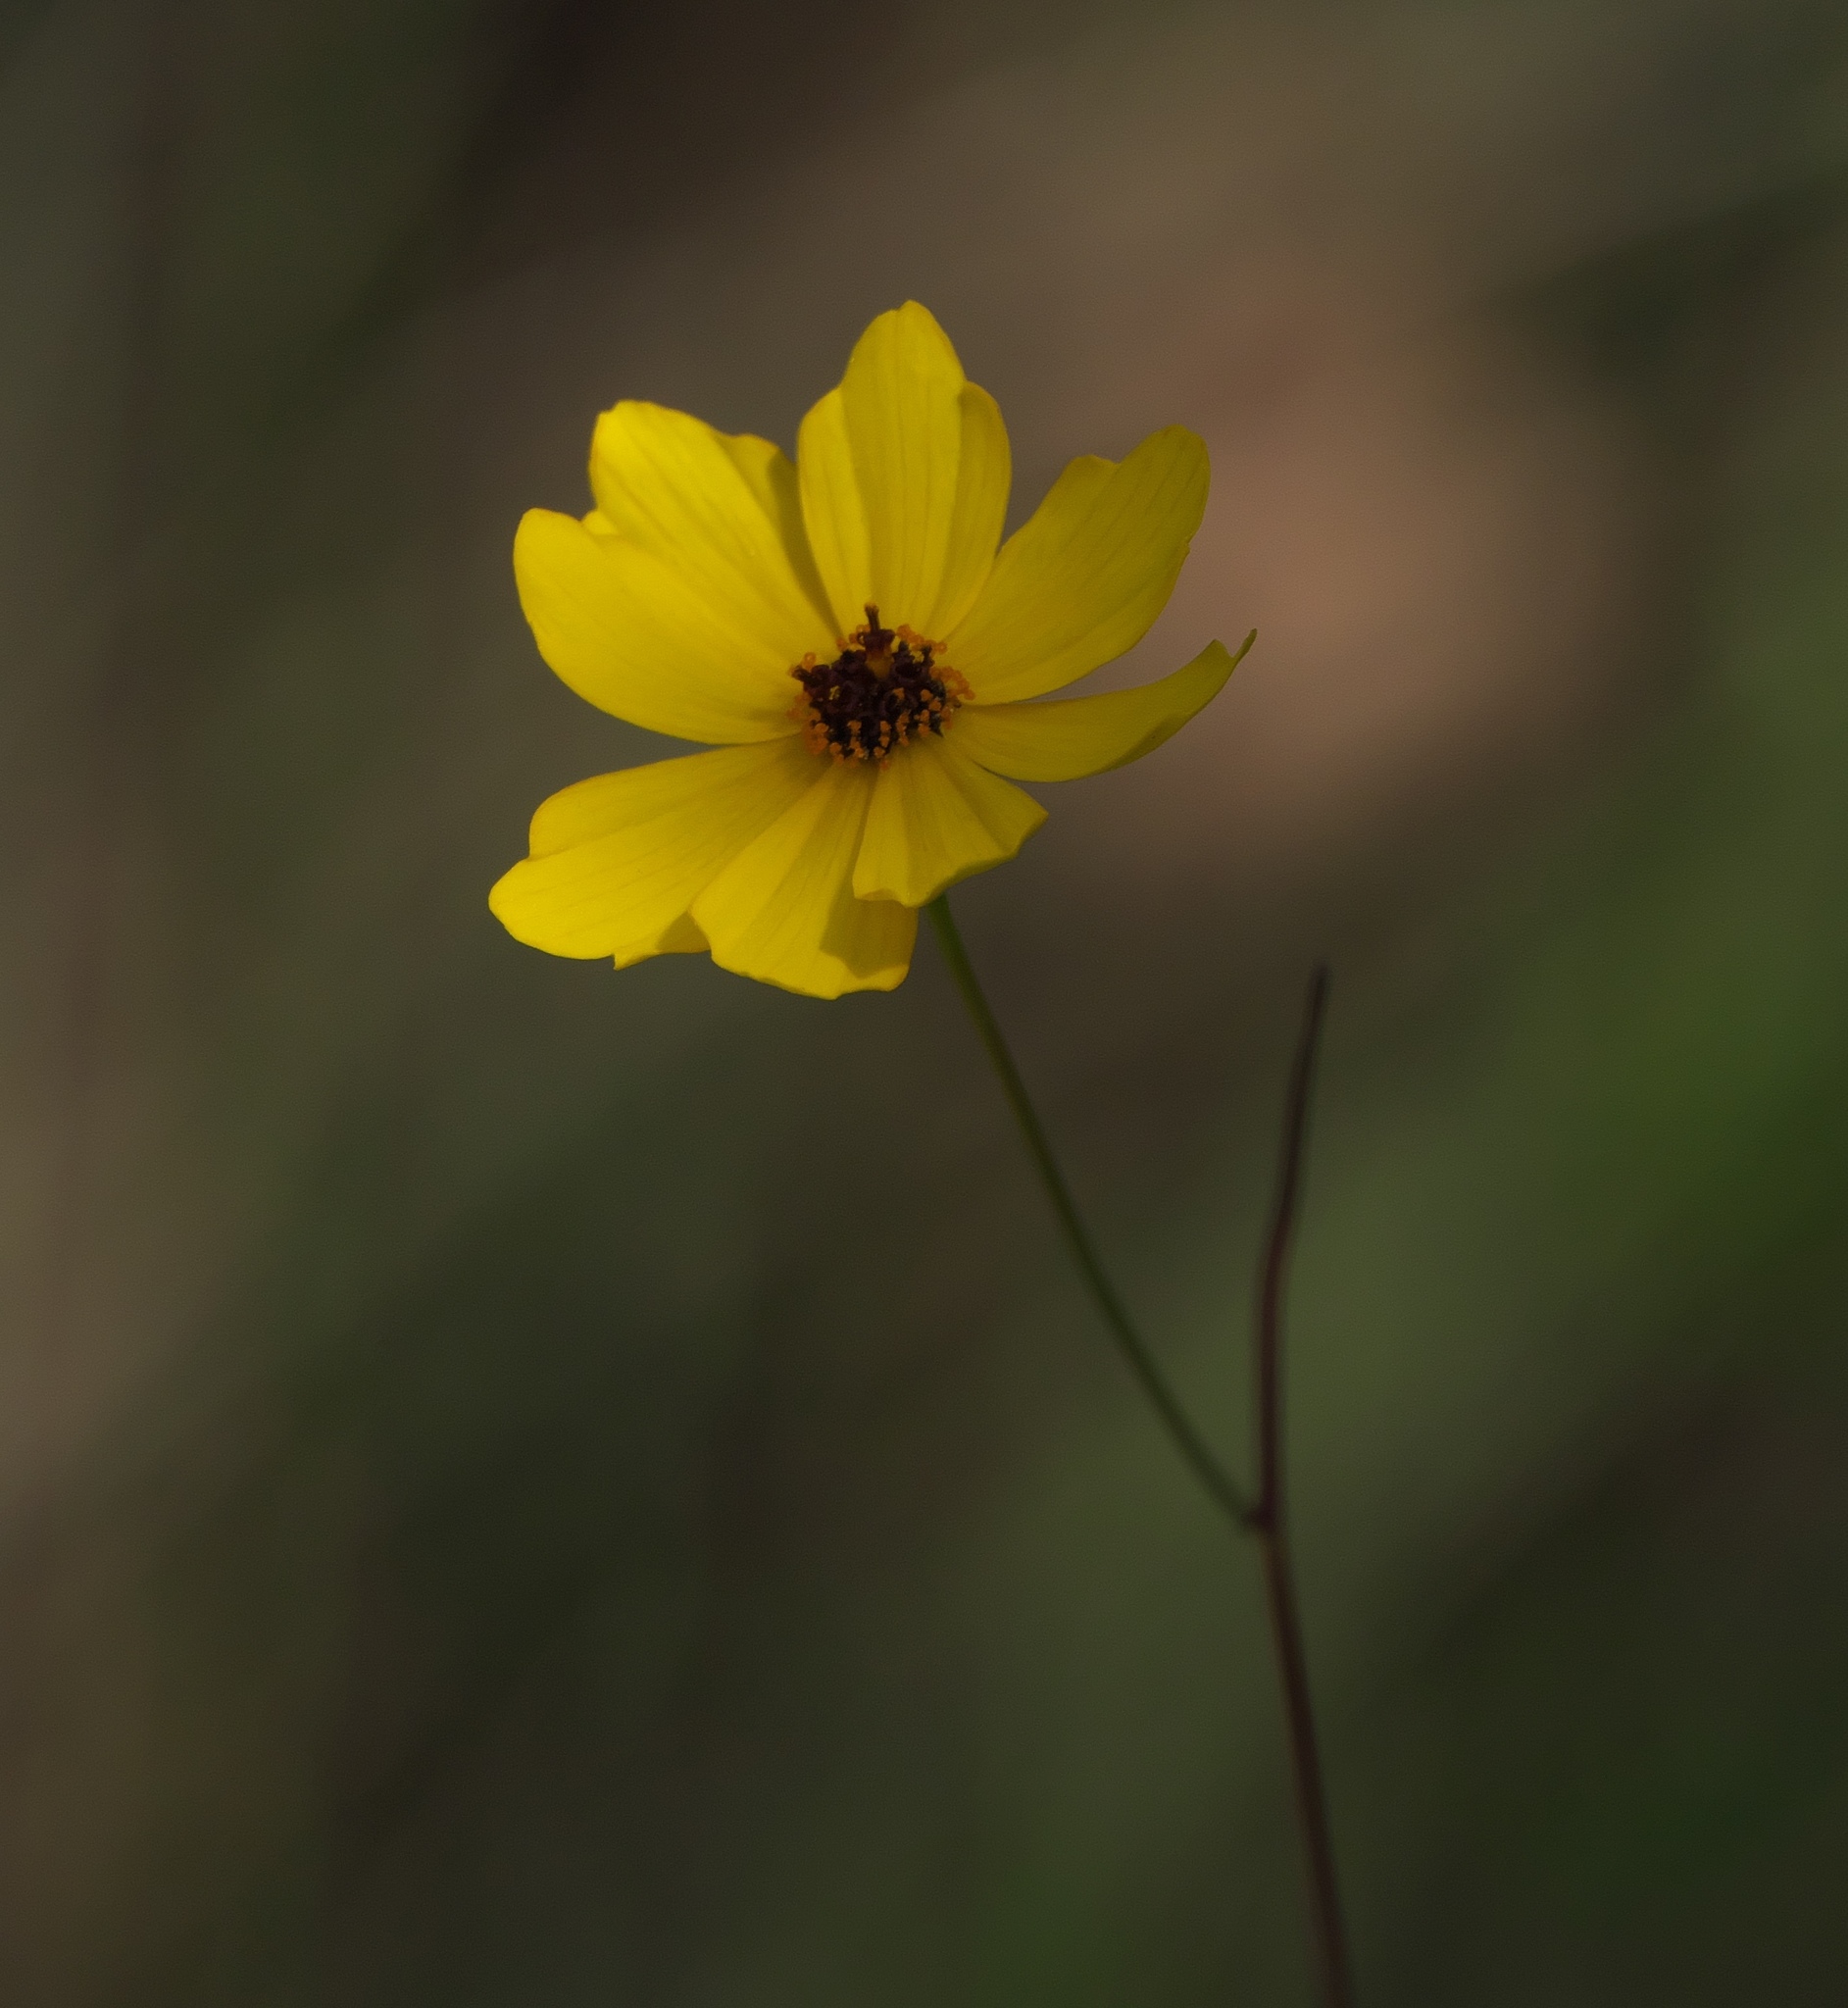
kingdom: Plantae
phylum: Tracheophyta
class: Magnoliopsida
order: Asterales
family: Asteraceae
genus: Coreopsis
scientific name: Coreopsis leavenworthii
